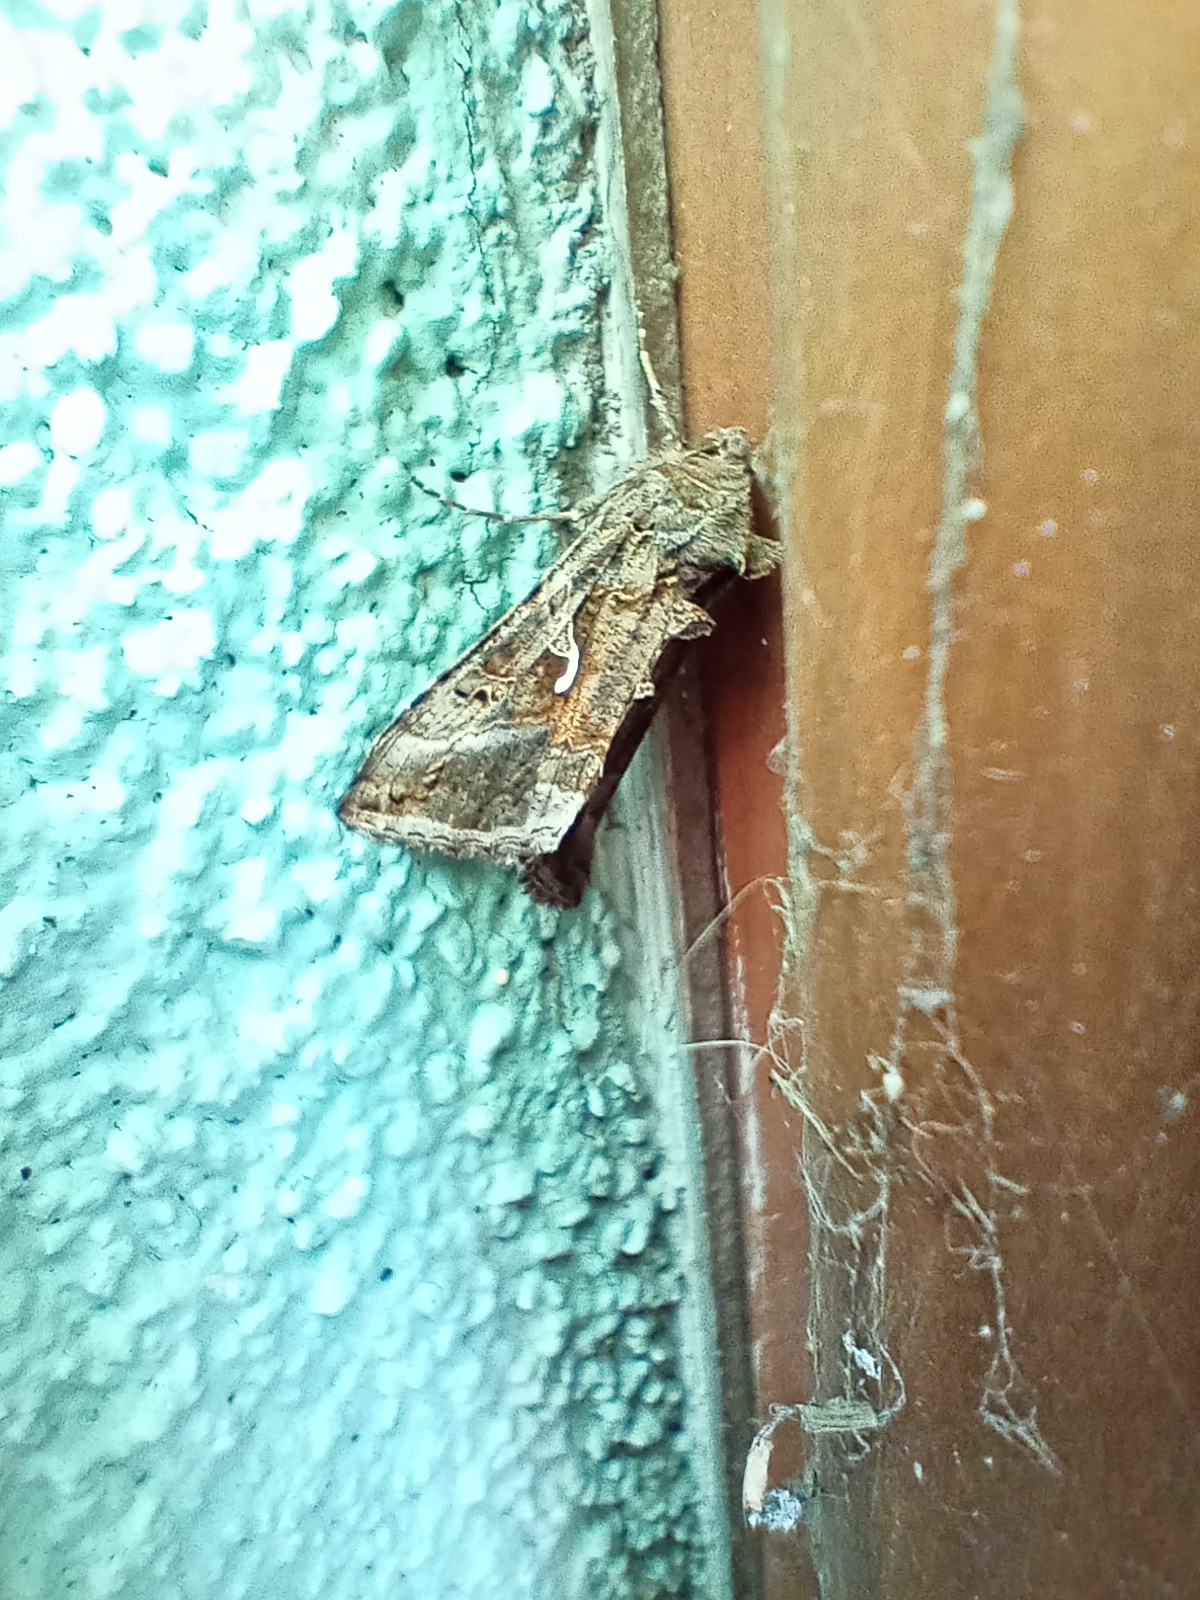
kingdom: Animalia
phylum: Arthropoda
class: Insecta
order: Lepidoptera
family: Noctuidae
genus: Autographa
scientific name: Autographa gamma
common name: Silver y
